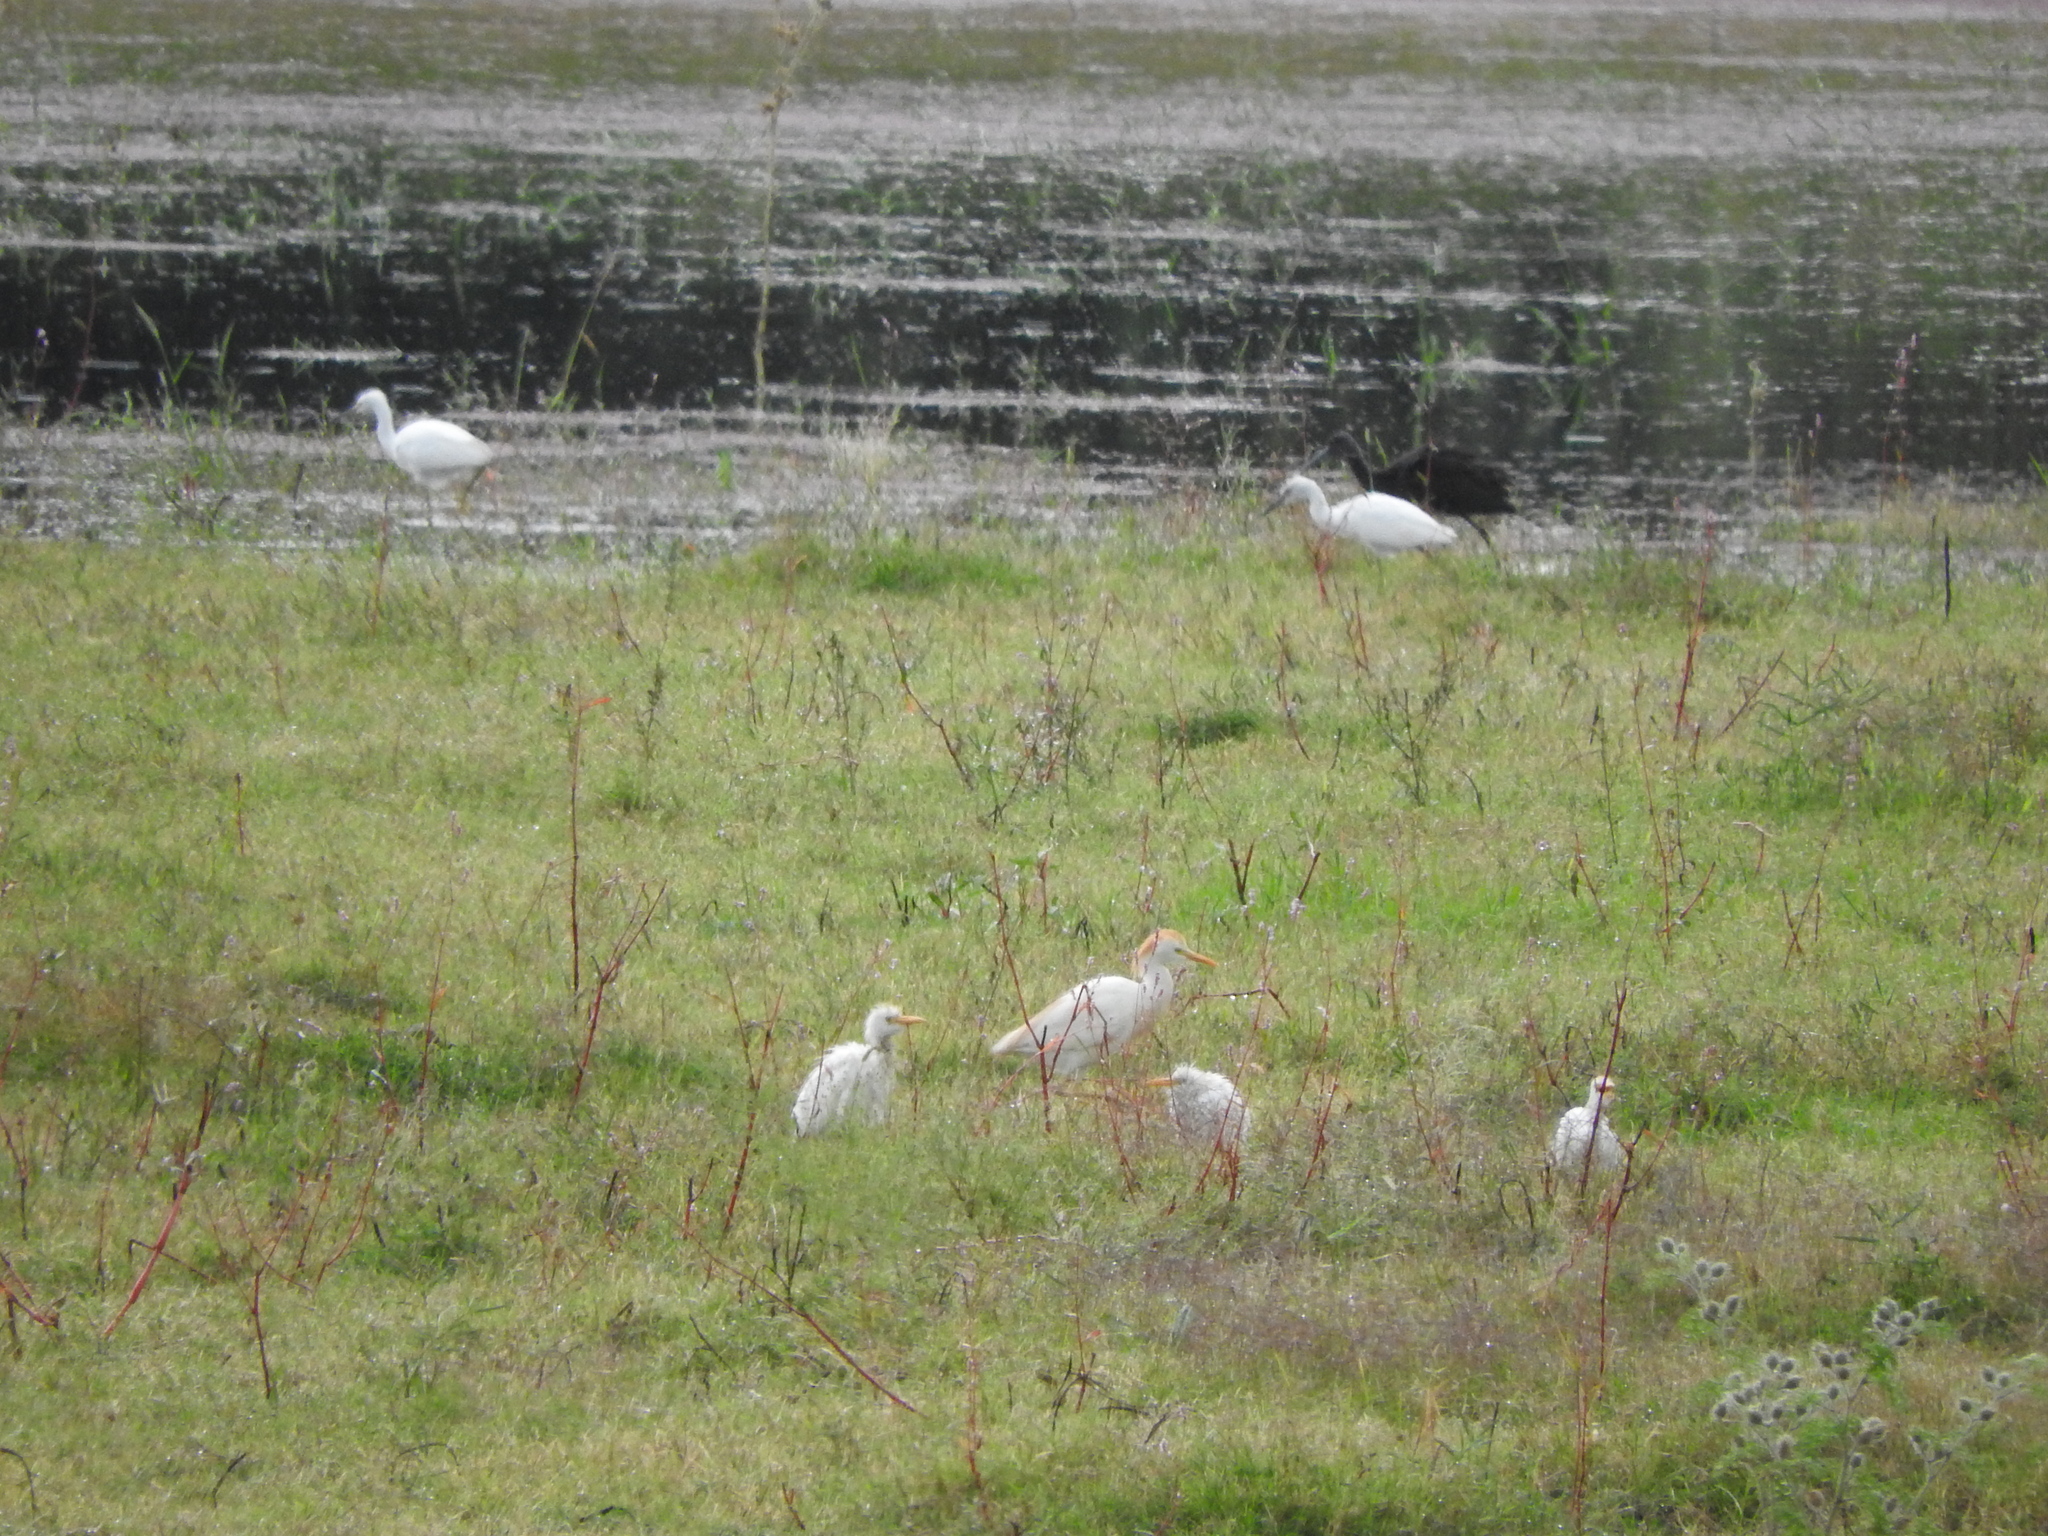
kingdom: Animalia
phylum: Chordata
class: Aves
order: Pelecaniformes
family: Ardeidae
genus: Bubulcus
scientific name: Bubulcus ibis
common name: Cattle egret
